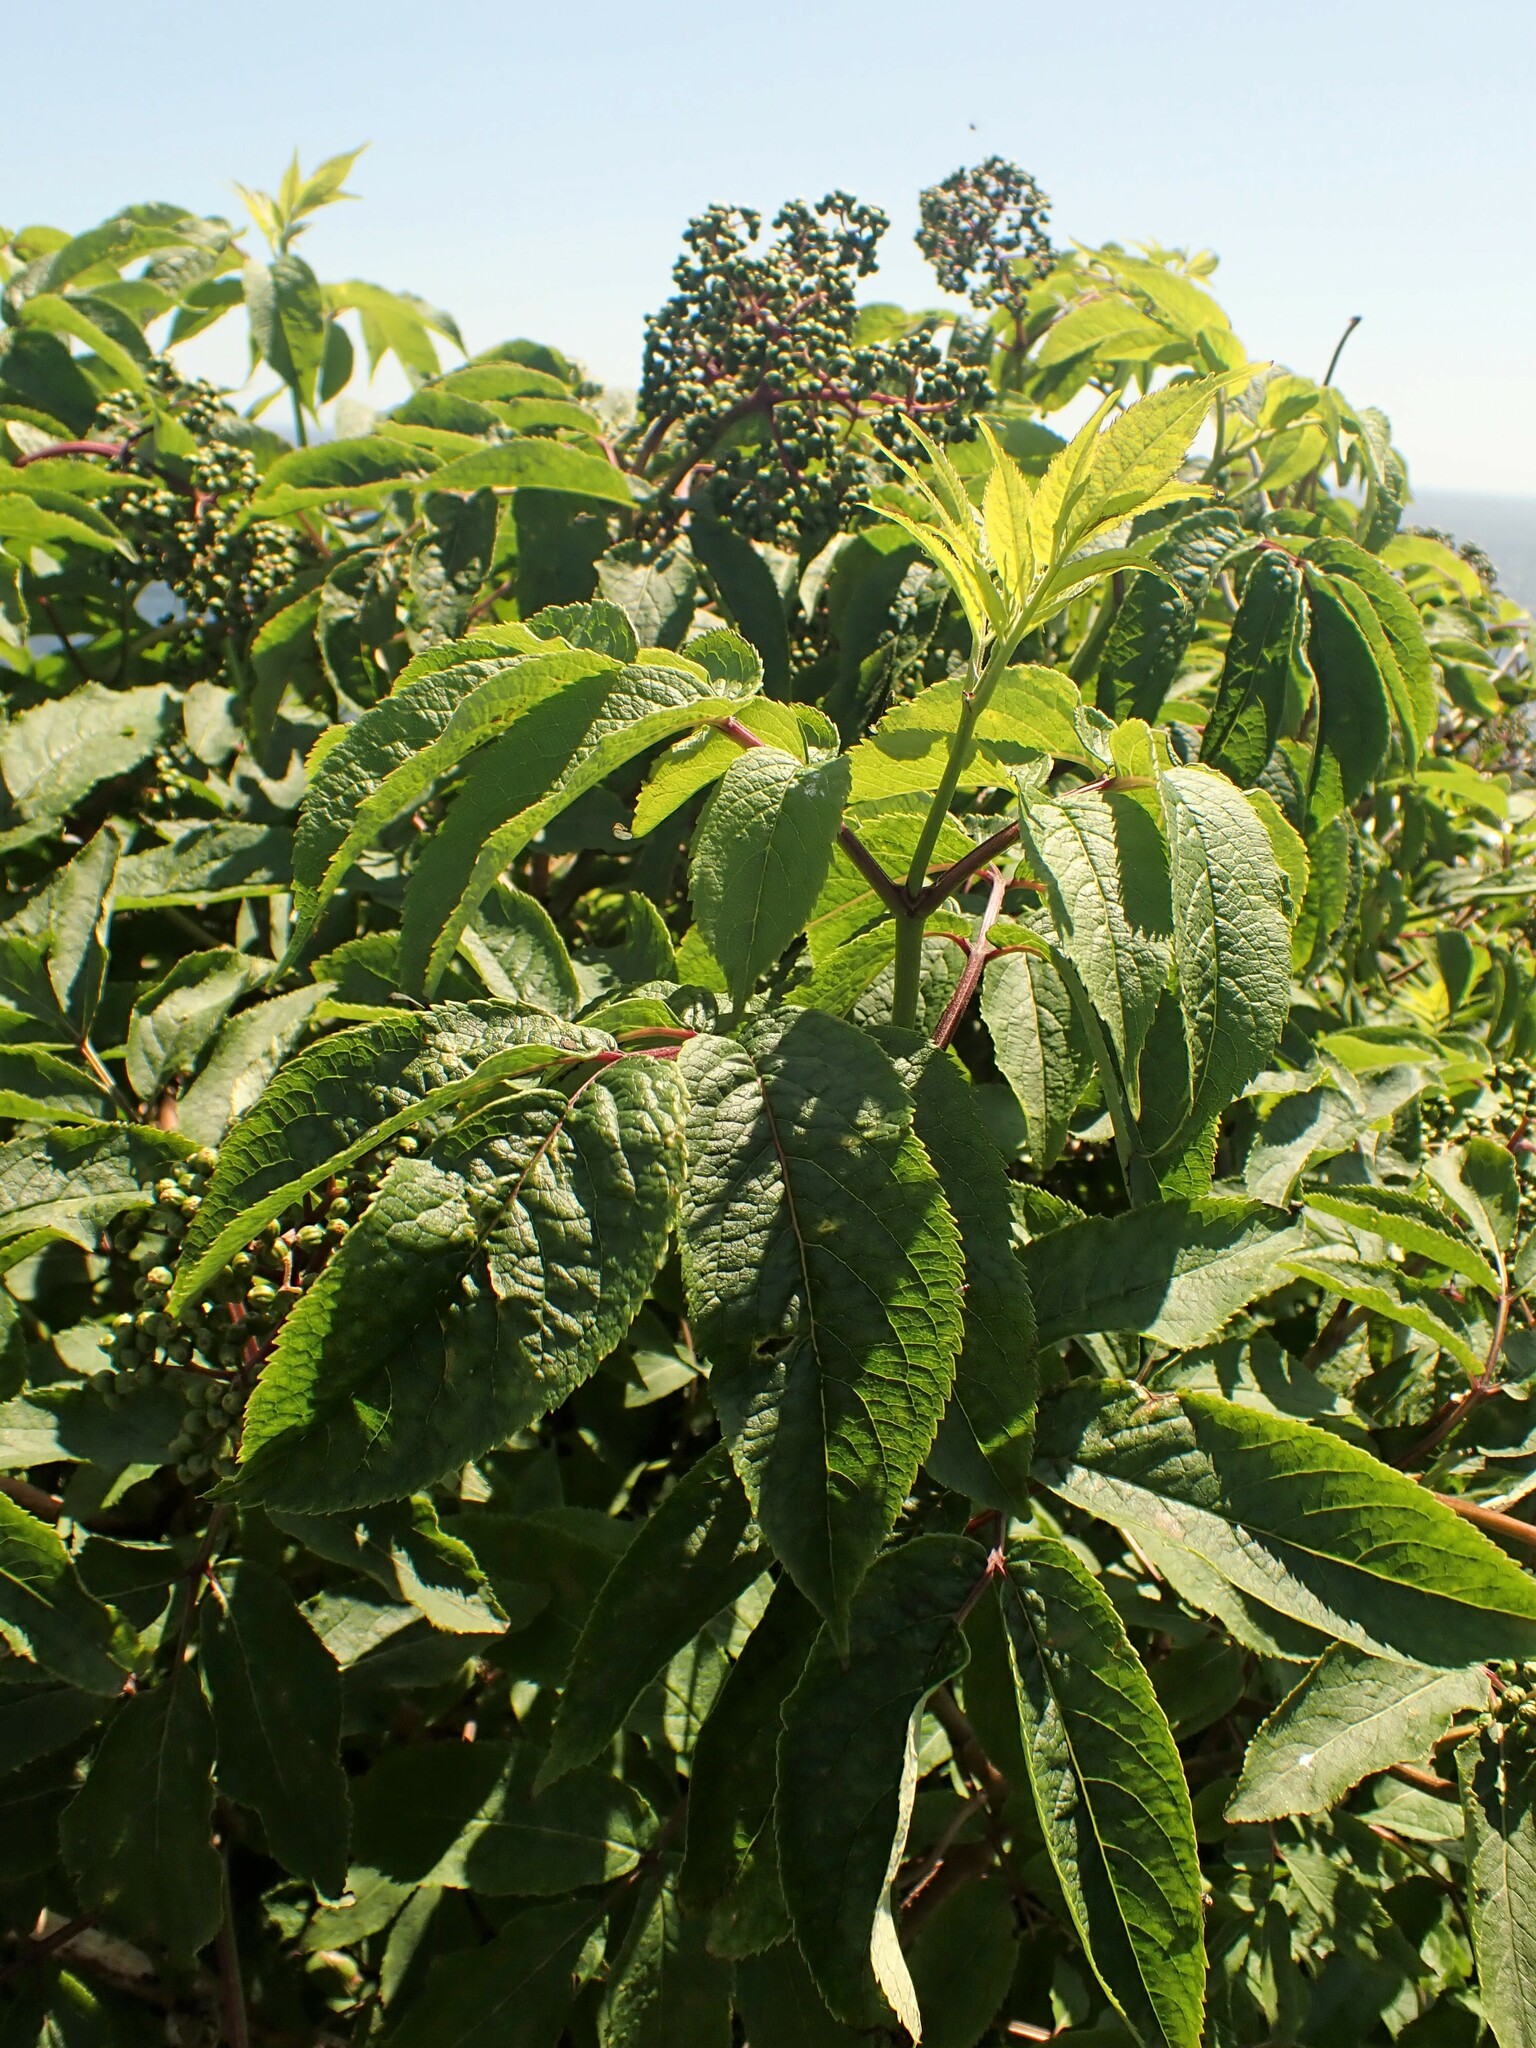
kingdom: Plantae
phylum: Tracheophyta
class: Magnoliopsida
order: Dipsacales
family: Viburnaceae
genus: Sambucus
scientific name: Sambucus racemosa
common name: Red-berried elder
